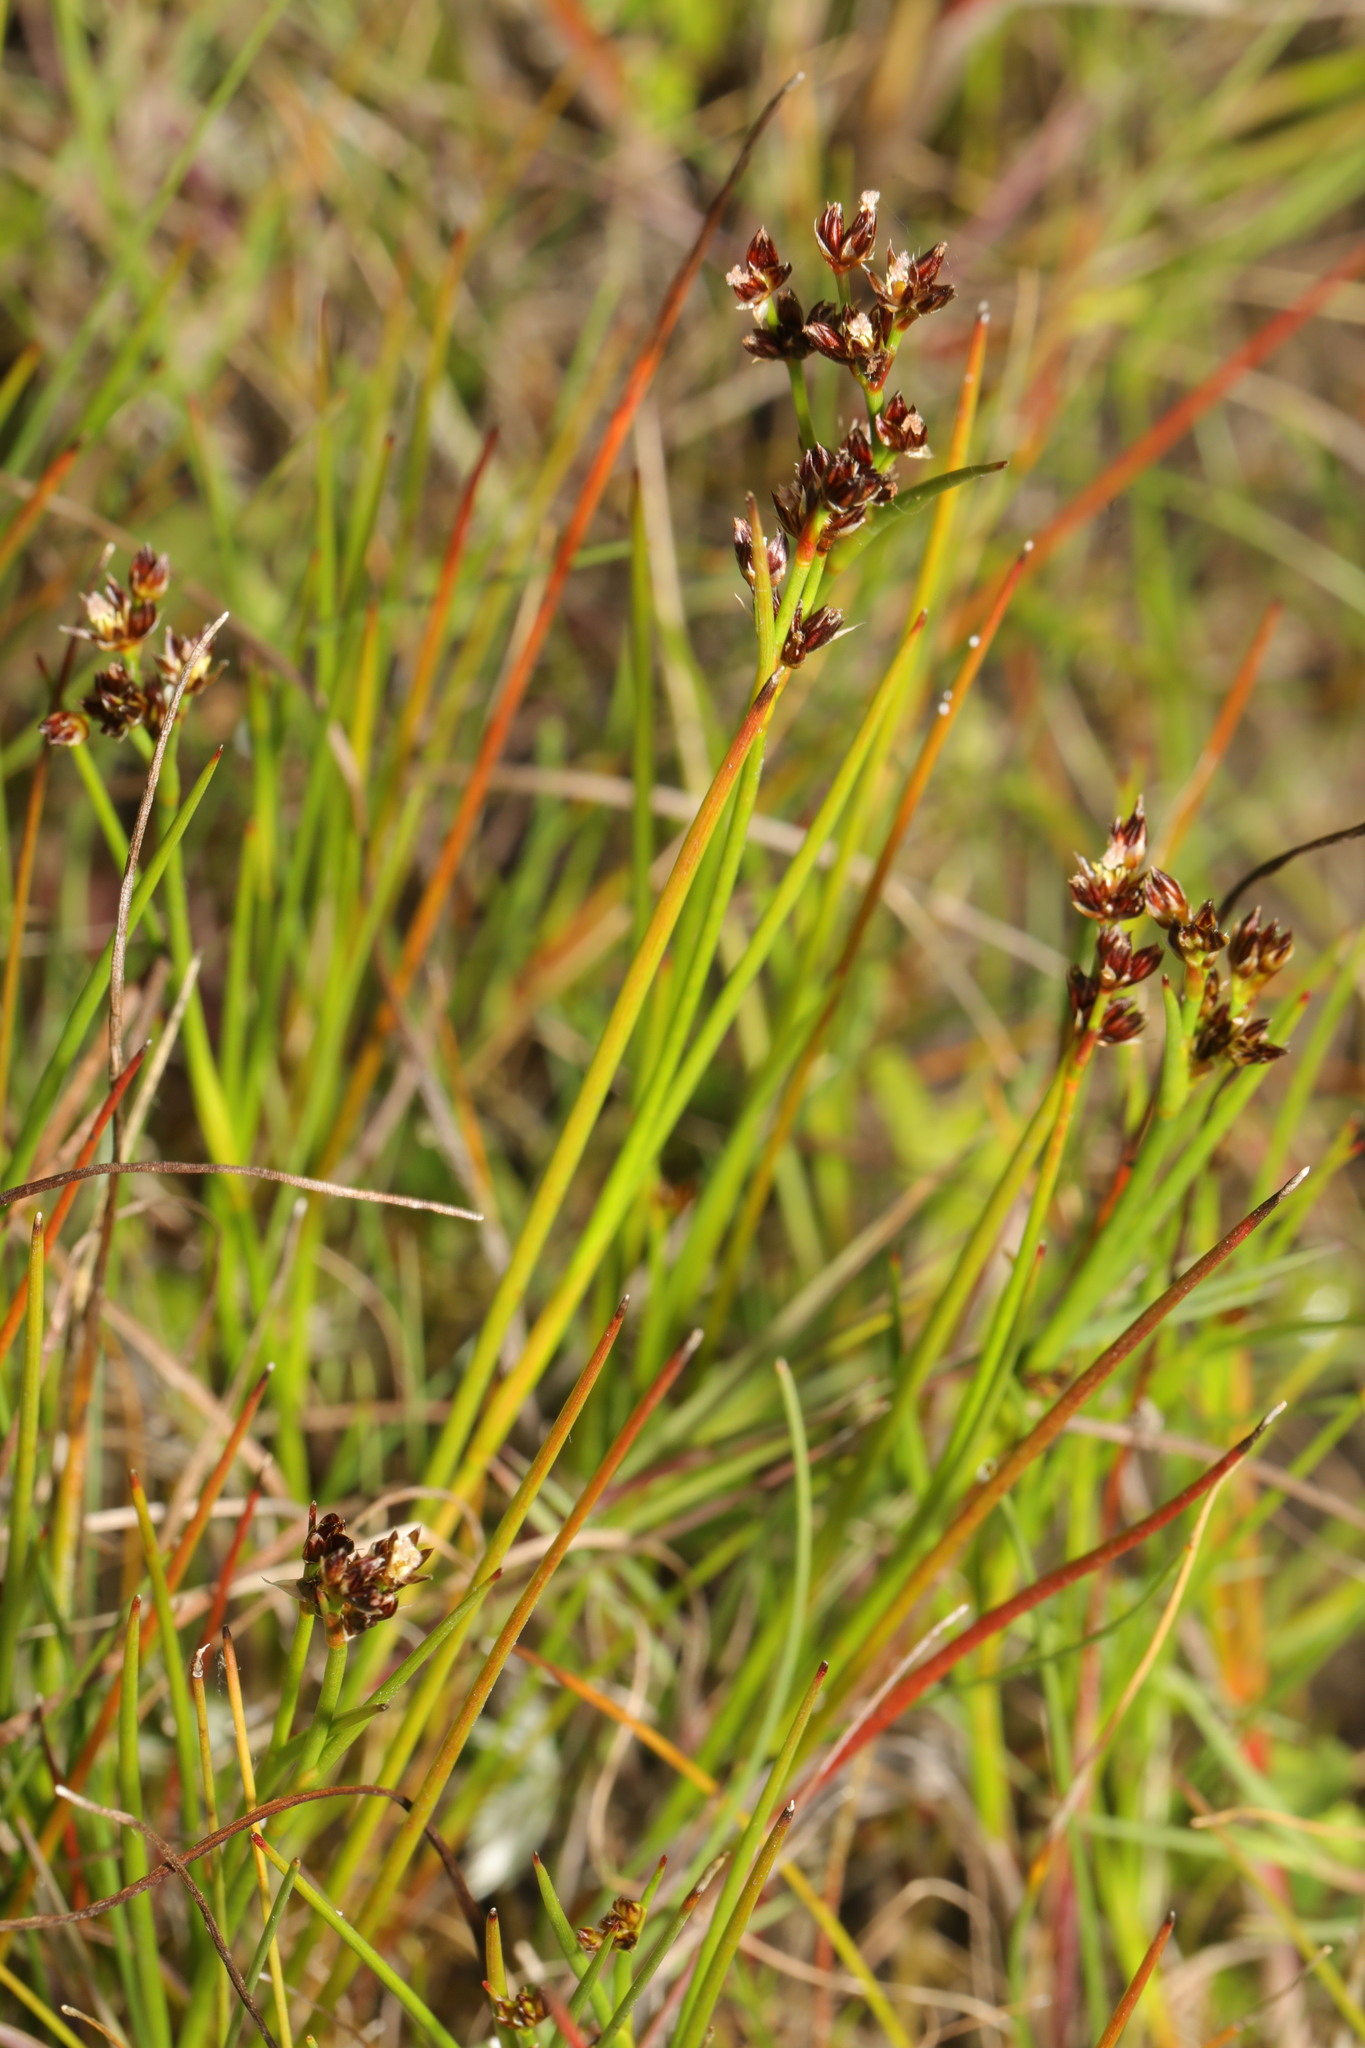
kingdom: Plantae
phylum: Tracheophyta
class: Liliopsida
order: Poales
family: Juncaceae
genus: Juncus
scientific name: Juncus articulatus
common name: Jointed rush
